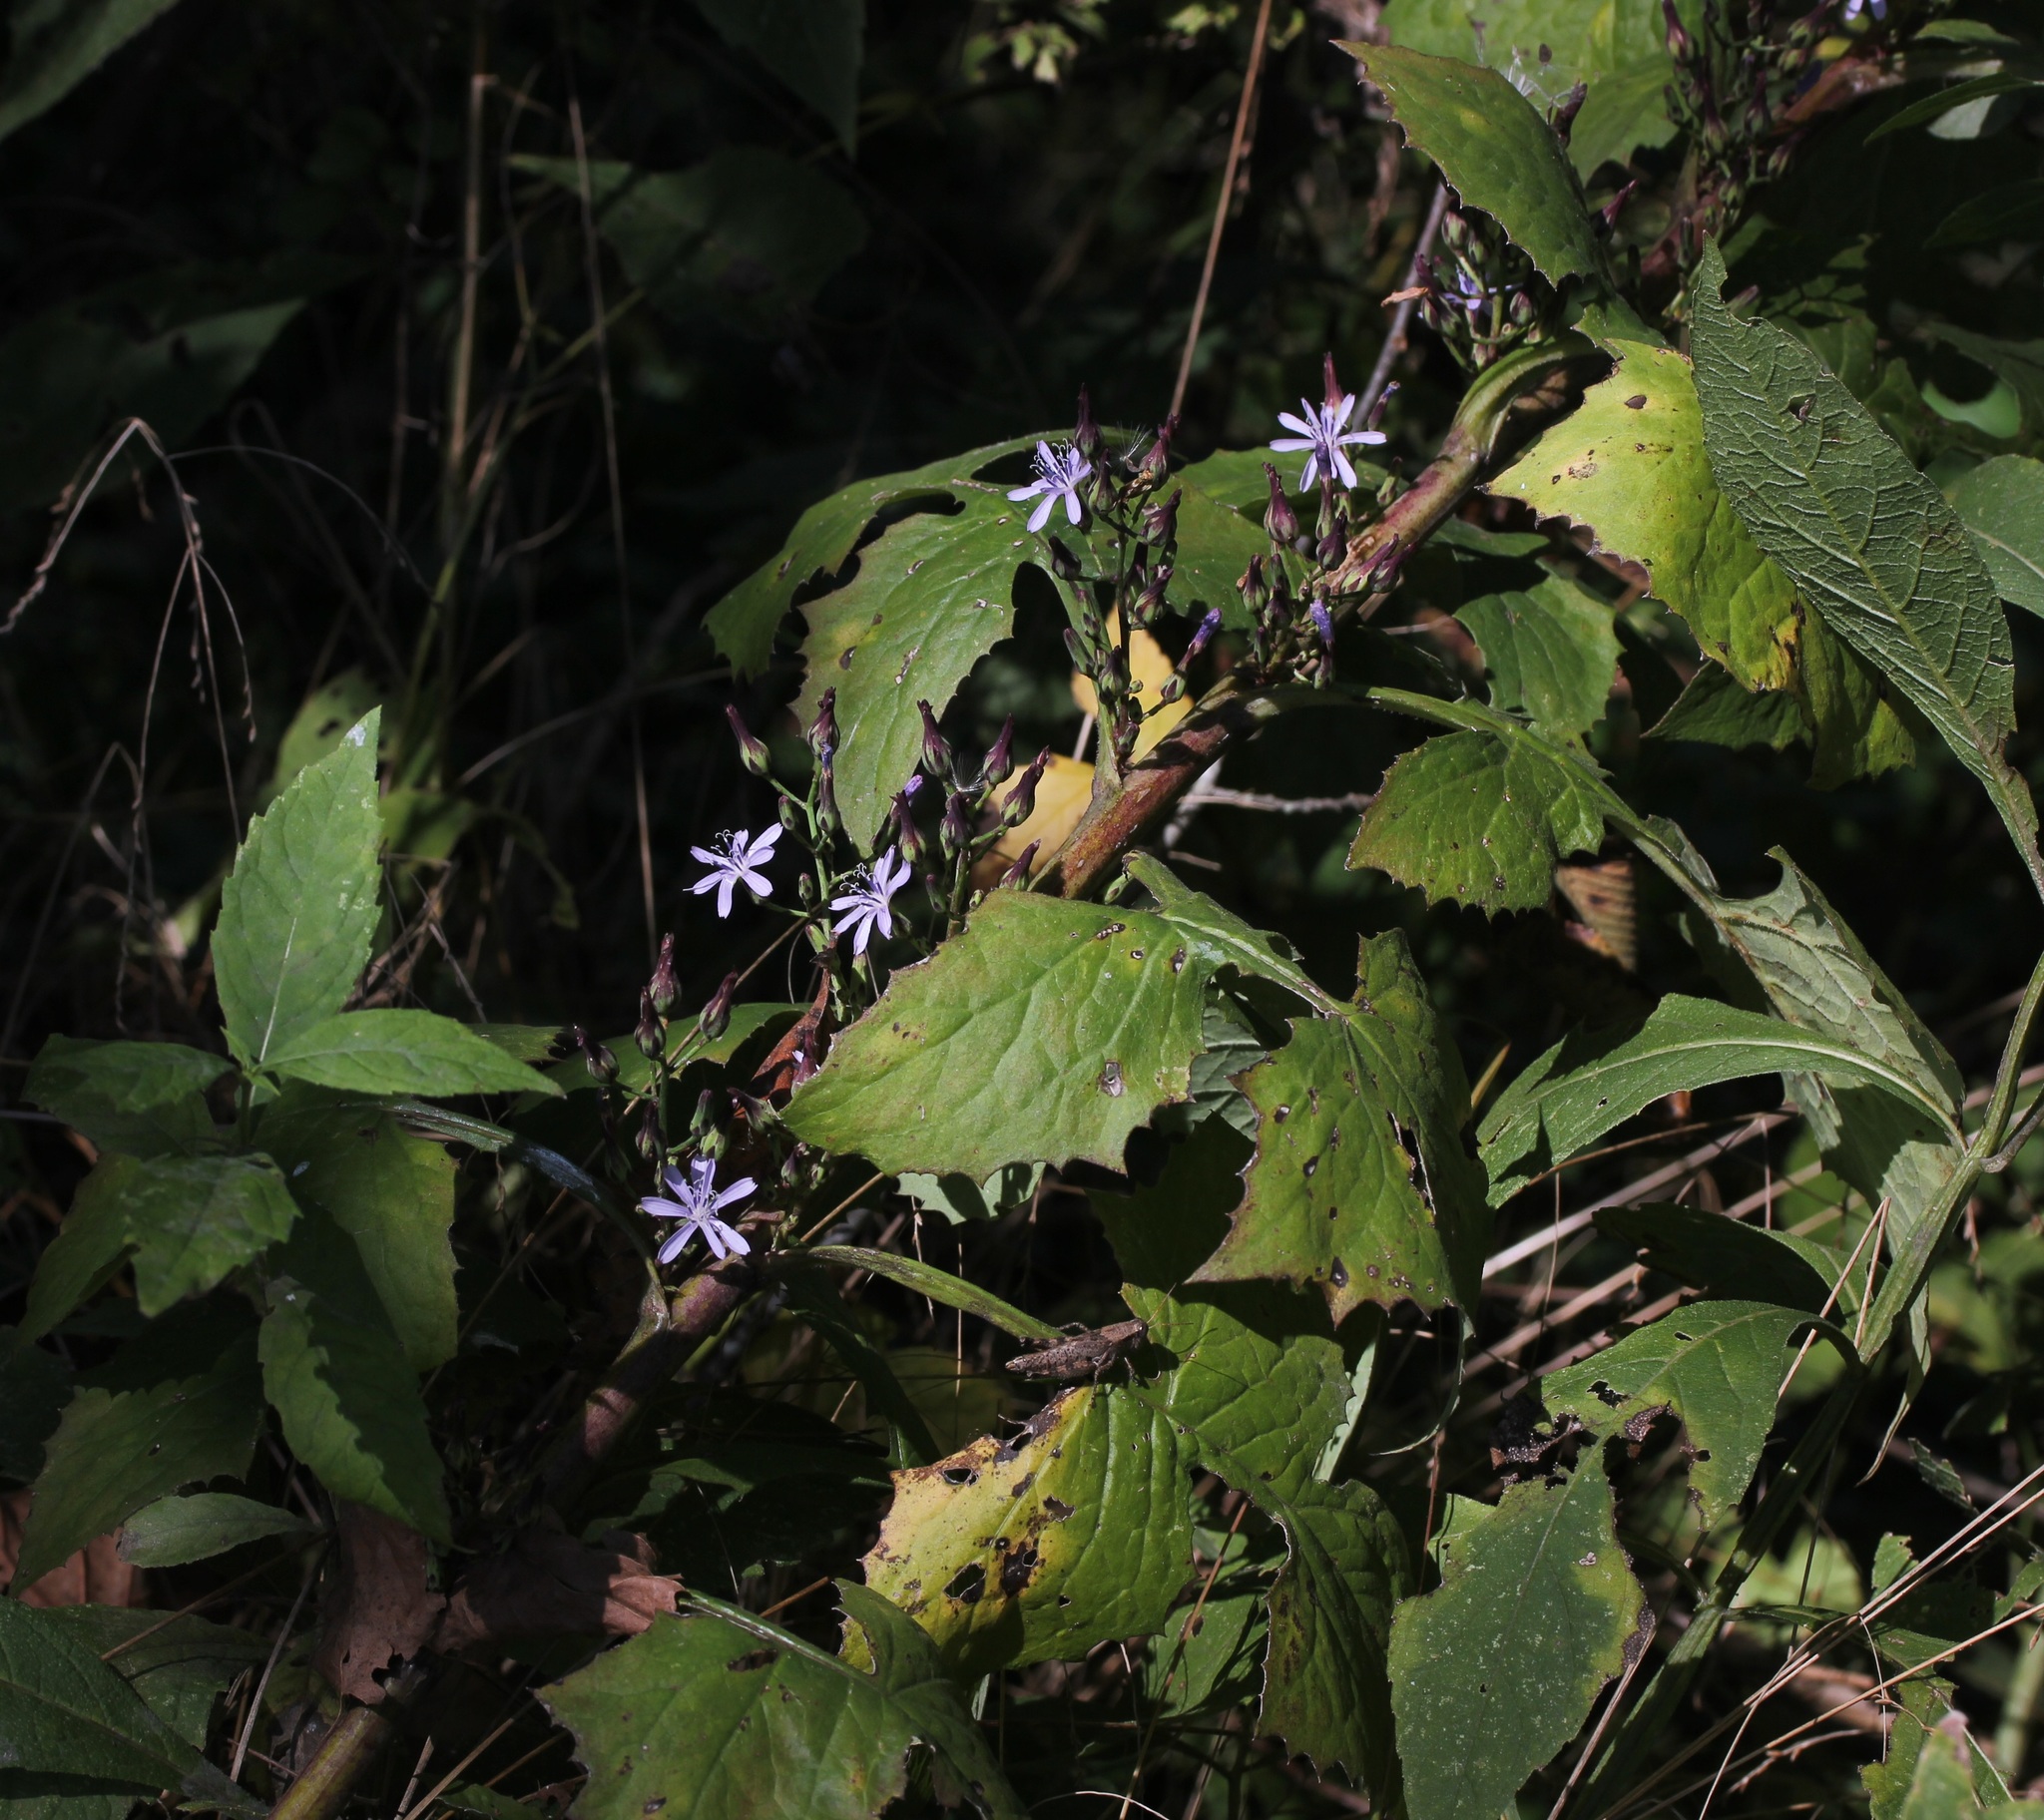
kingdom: Plantae
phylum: Tracheophyta
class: Magnoliopsida
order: Asterales
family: Asteraceae
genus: Lactuca
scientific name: Lactuca floridana
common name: Woodland lettuce
